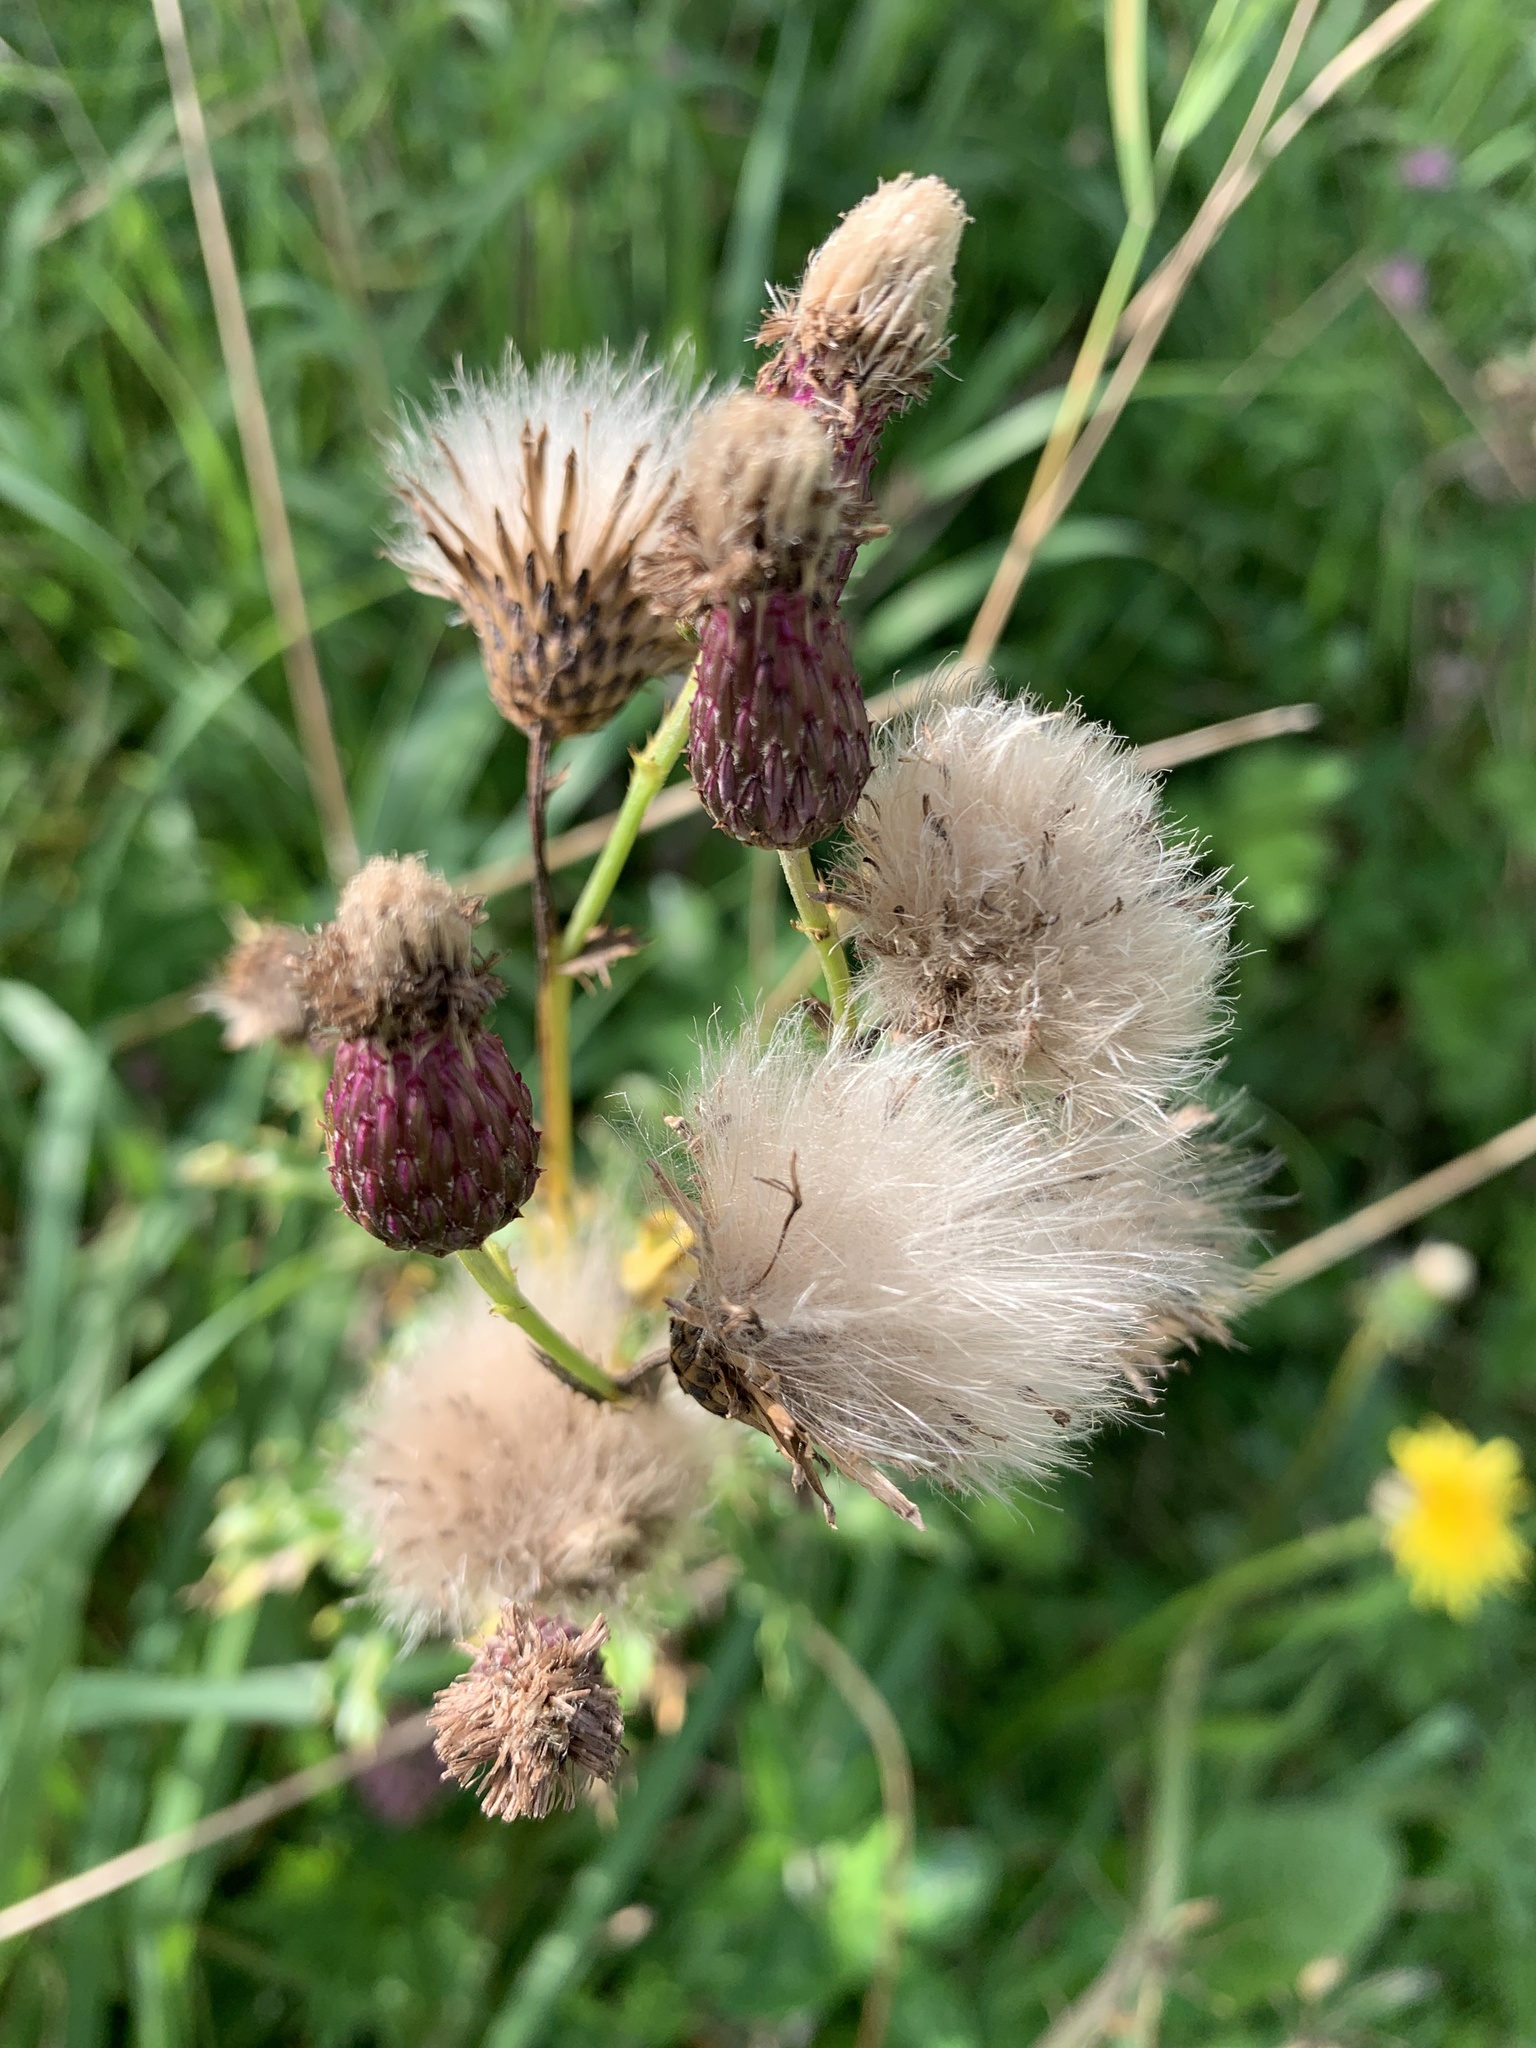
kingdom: Plantae
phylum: Tracheophyta
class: Magnoliopsida
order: Asterales
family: Asteraceae
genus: Cirsium
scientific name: Cirsium arvense
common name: Creeping thistle
